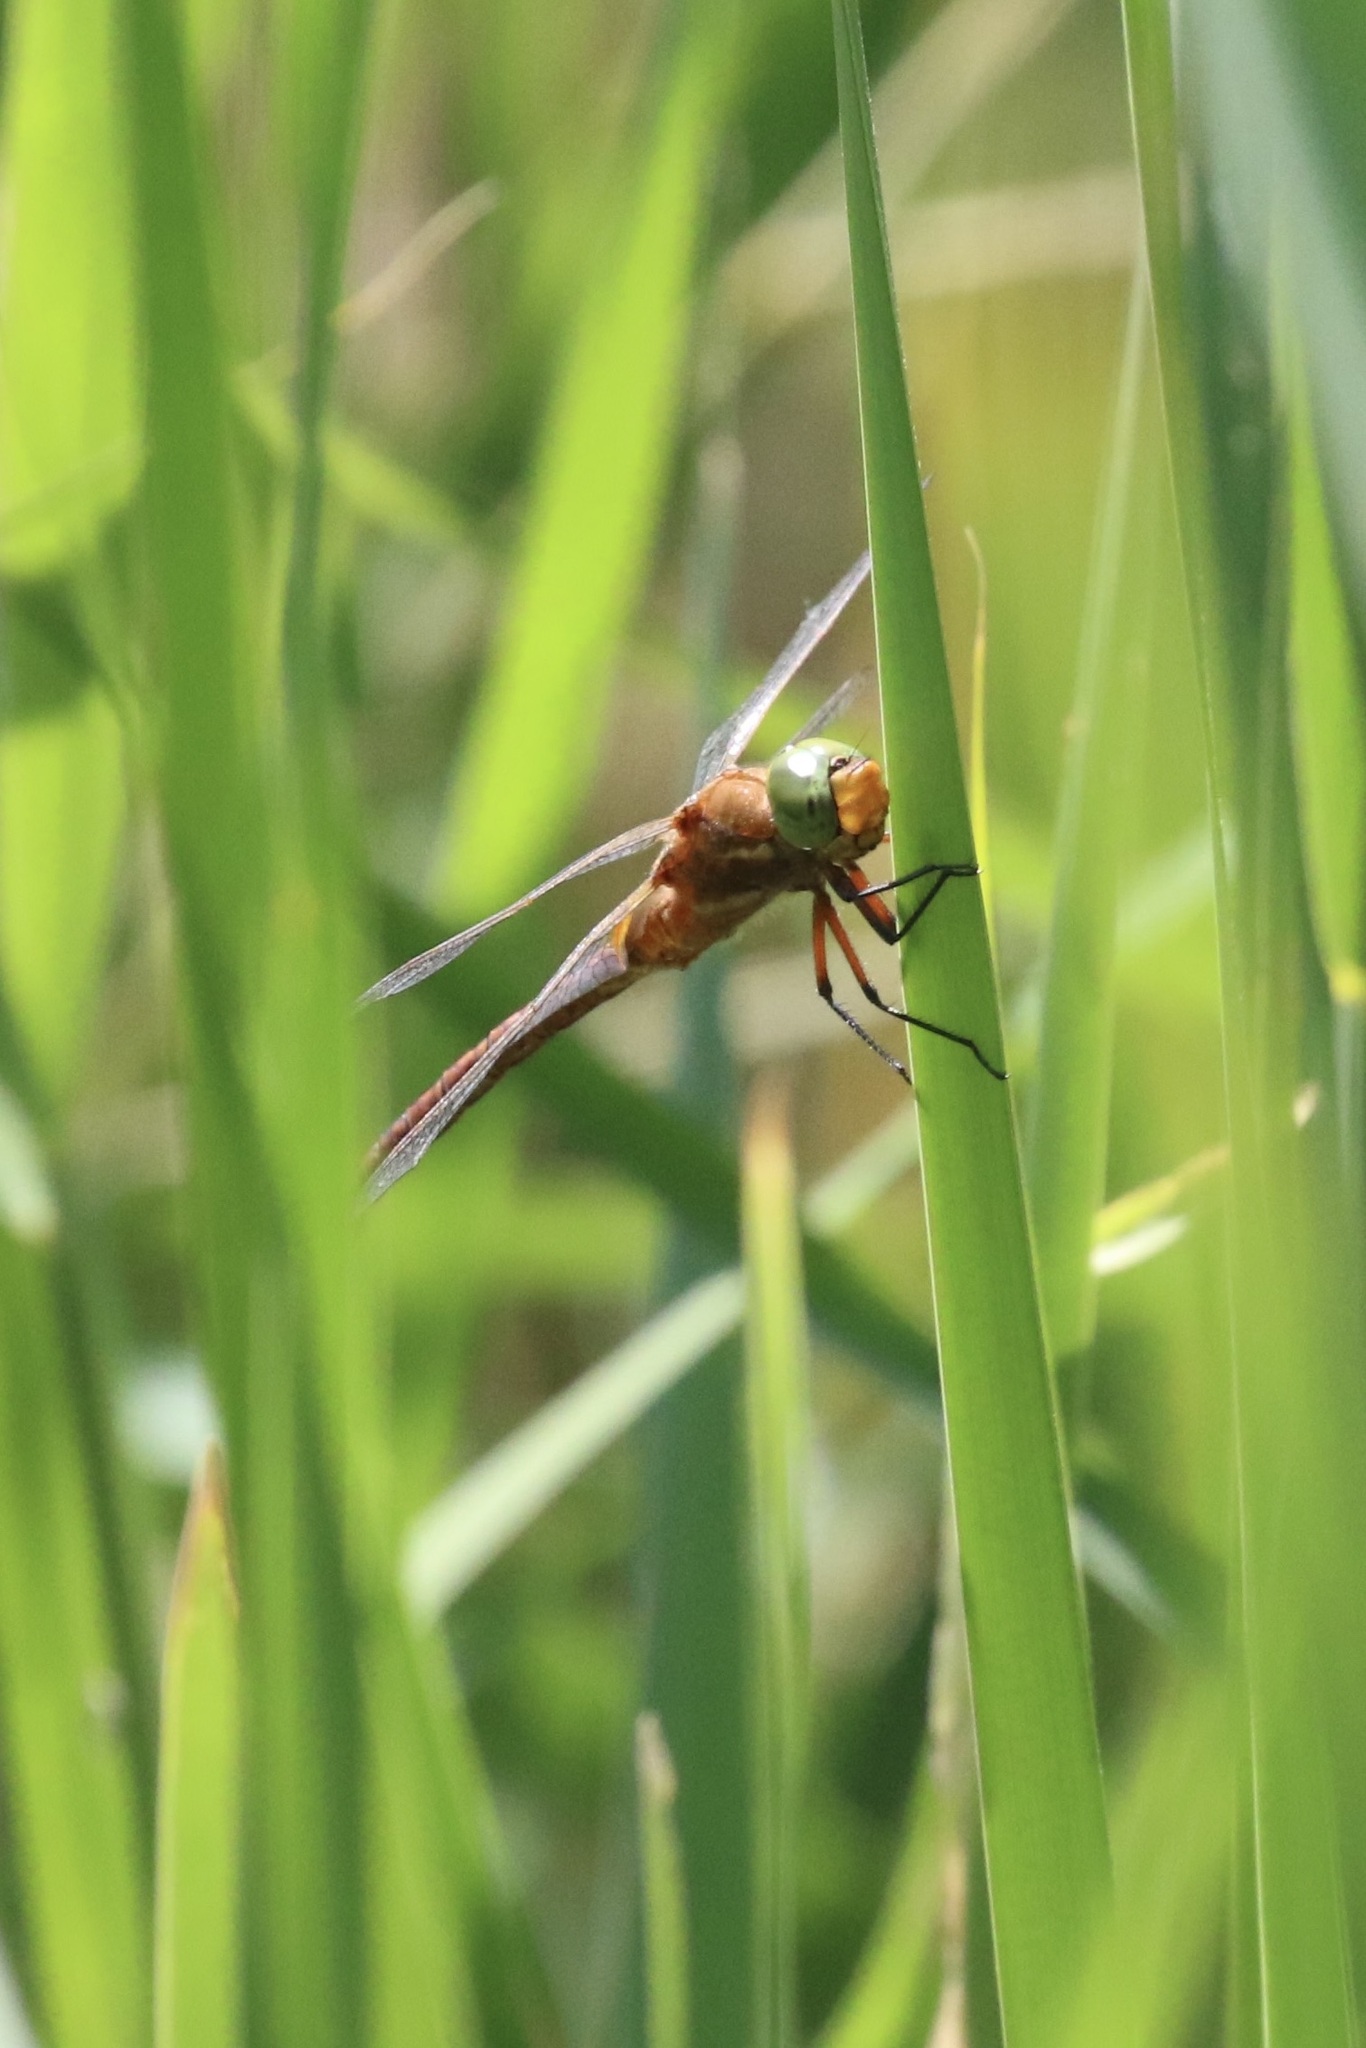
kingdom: Animalia
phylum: Arthropoda
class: Insecta
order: Odonata
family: Aeshnidae
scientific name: Aeshnidae
